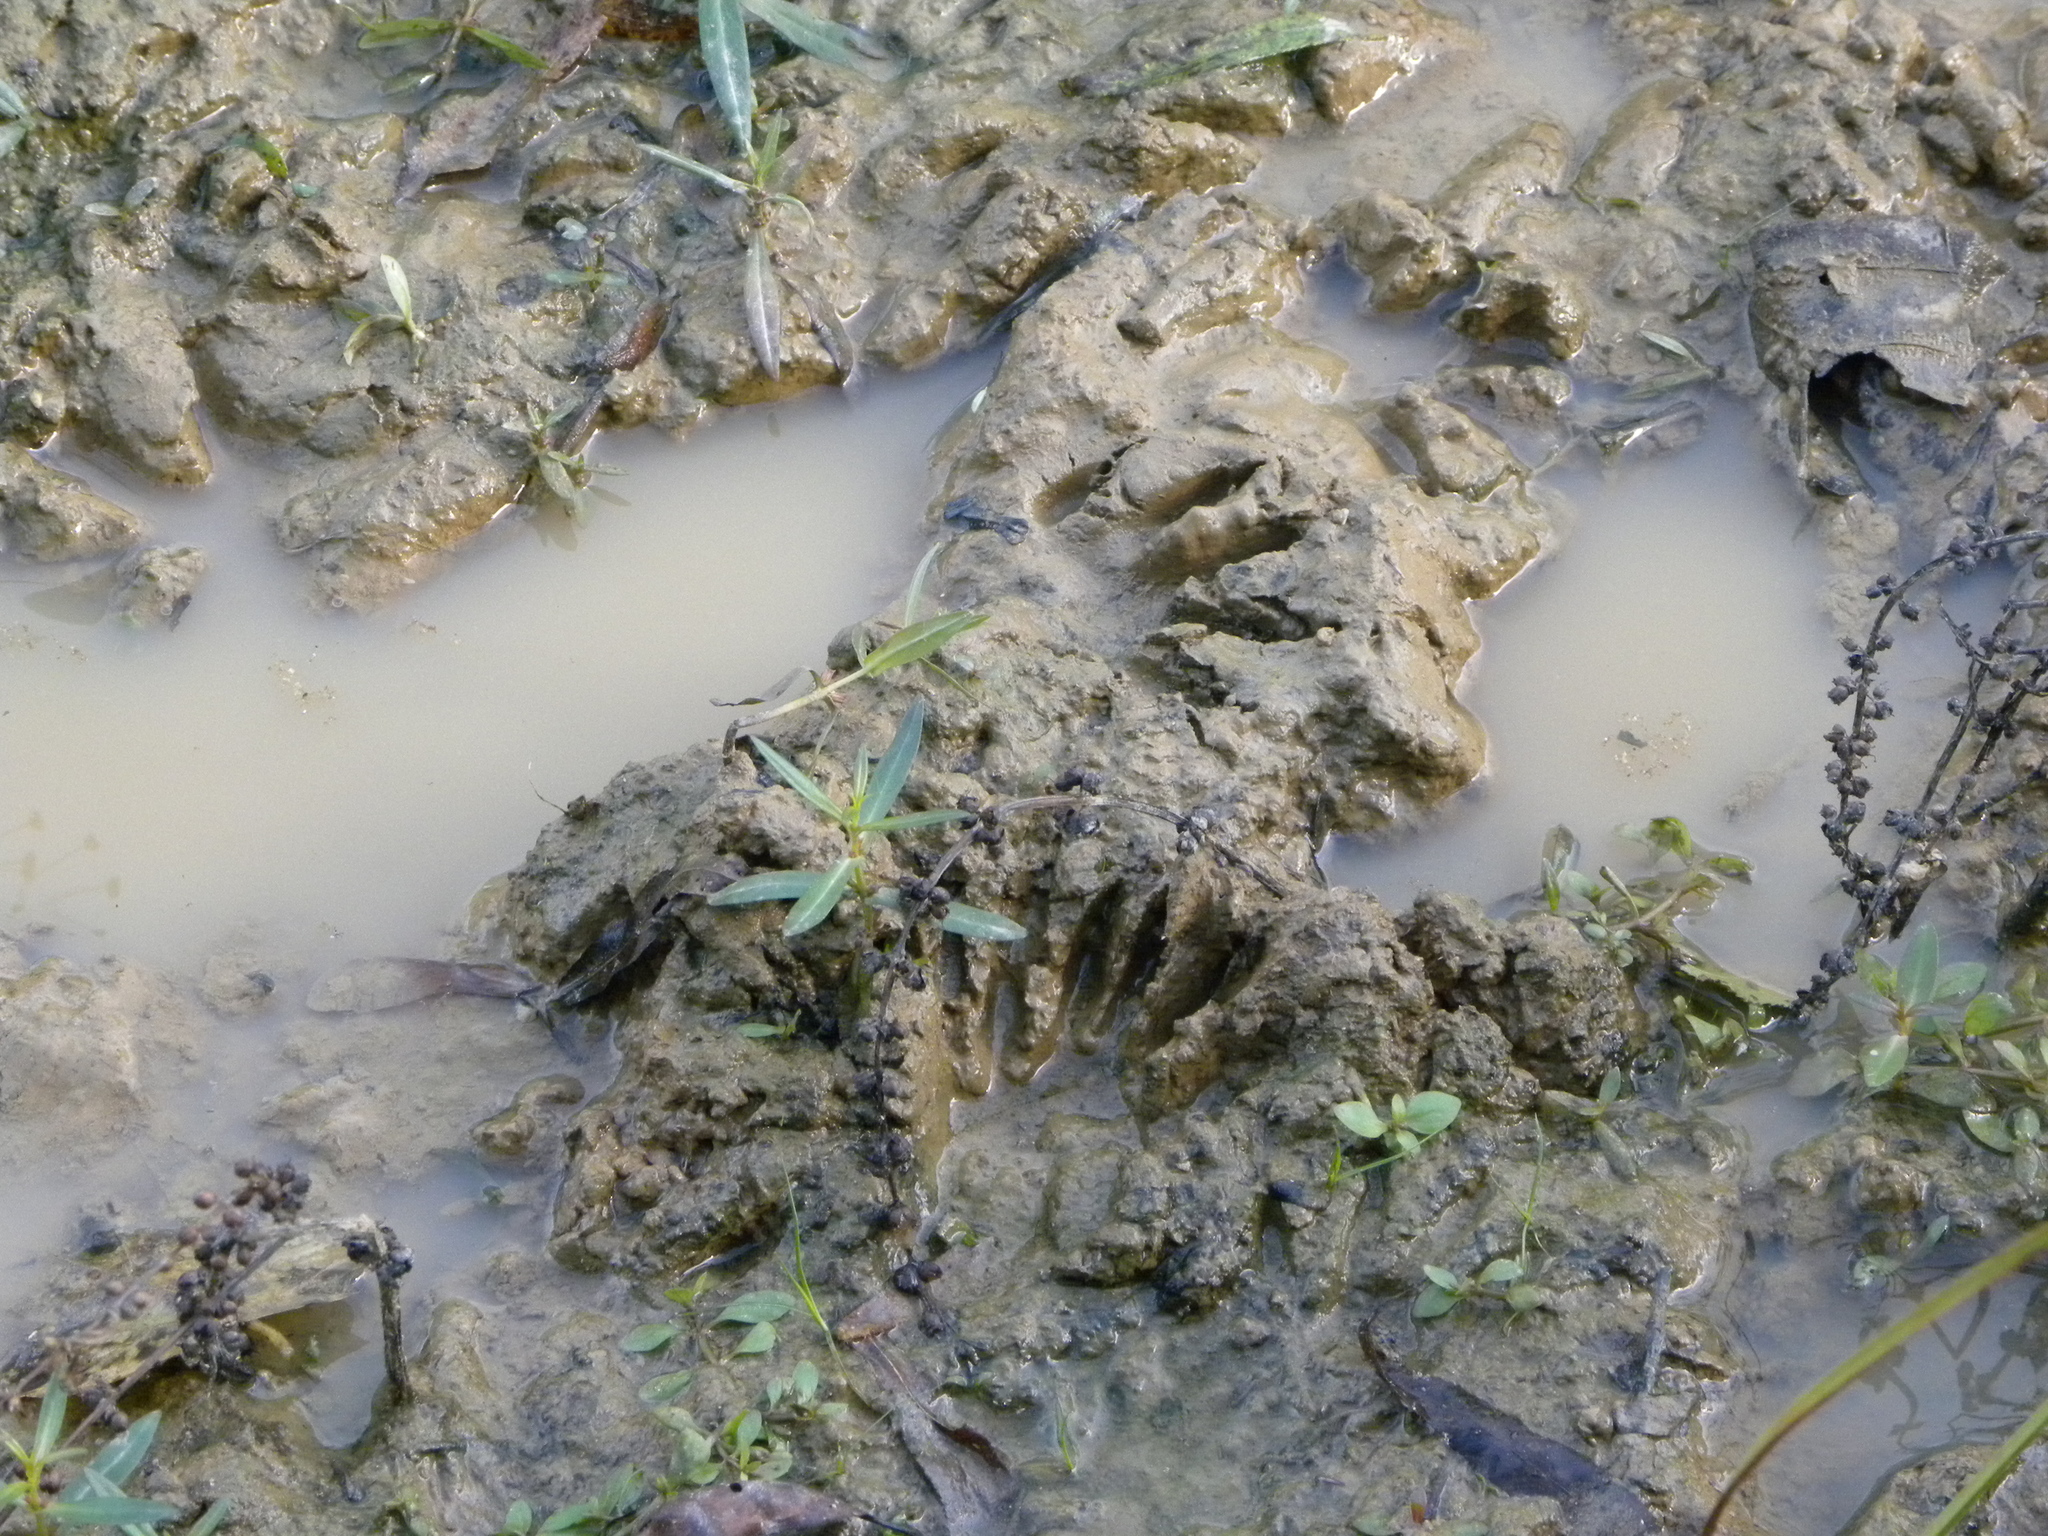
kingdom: Animalia
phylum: Chordata
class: Mammalia
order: Carnivora
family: Procyonidae
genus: Procyon
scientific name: Procyon lotor
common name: Raccoon
